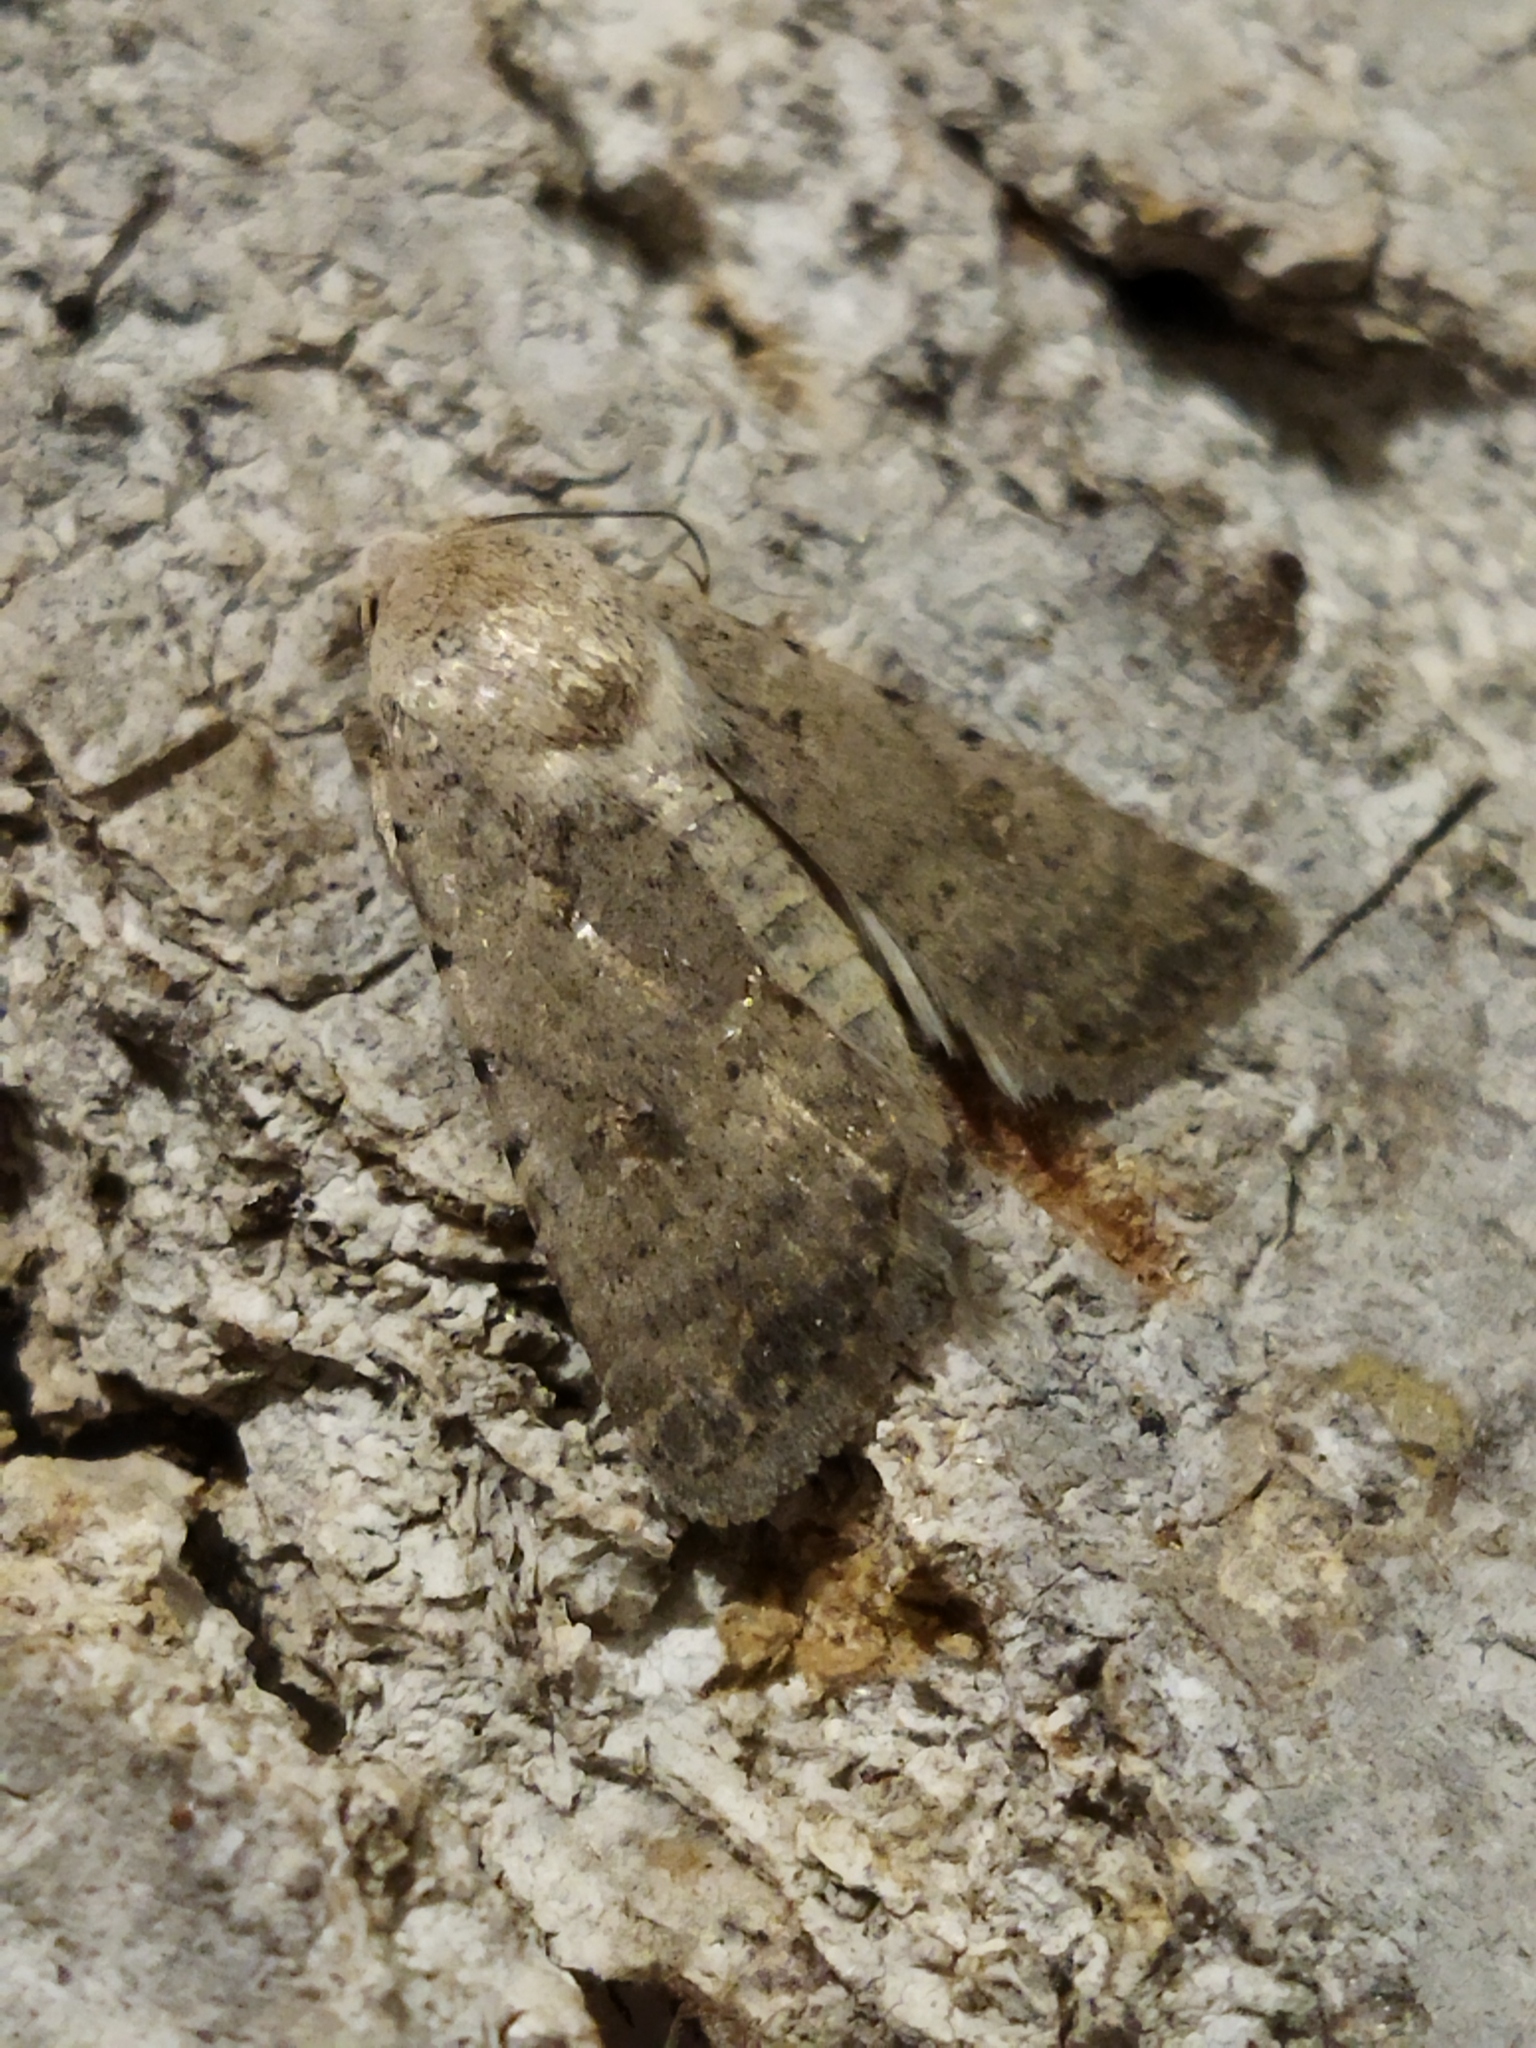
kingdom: Animalia
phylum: Arthropoda
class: Insecta
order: Lepidoptera
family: Noctuidae
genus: Caradrina
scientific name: Caradrina clavipalpis
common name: Pale mottled willow
